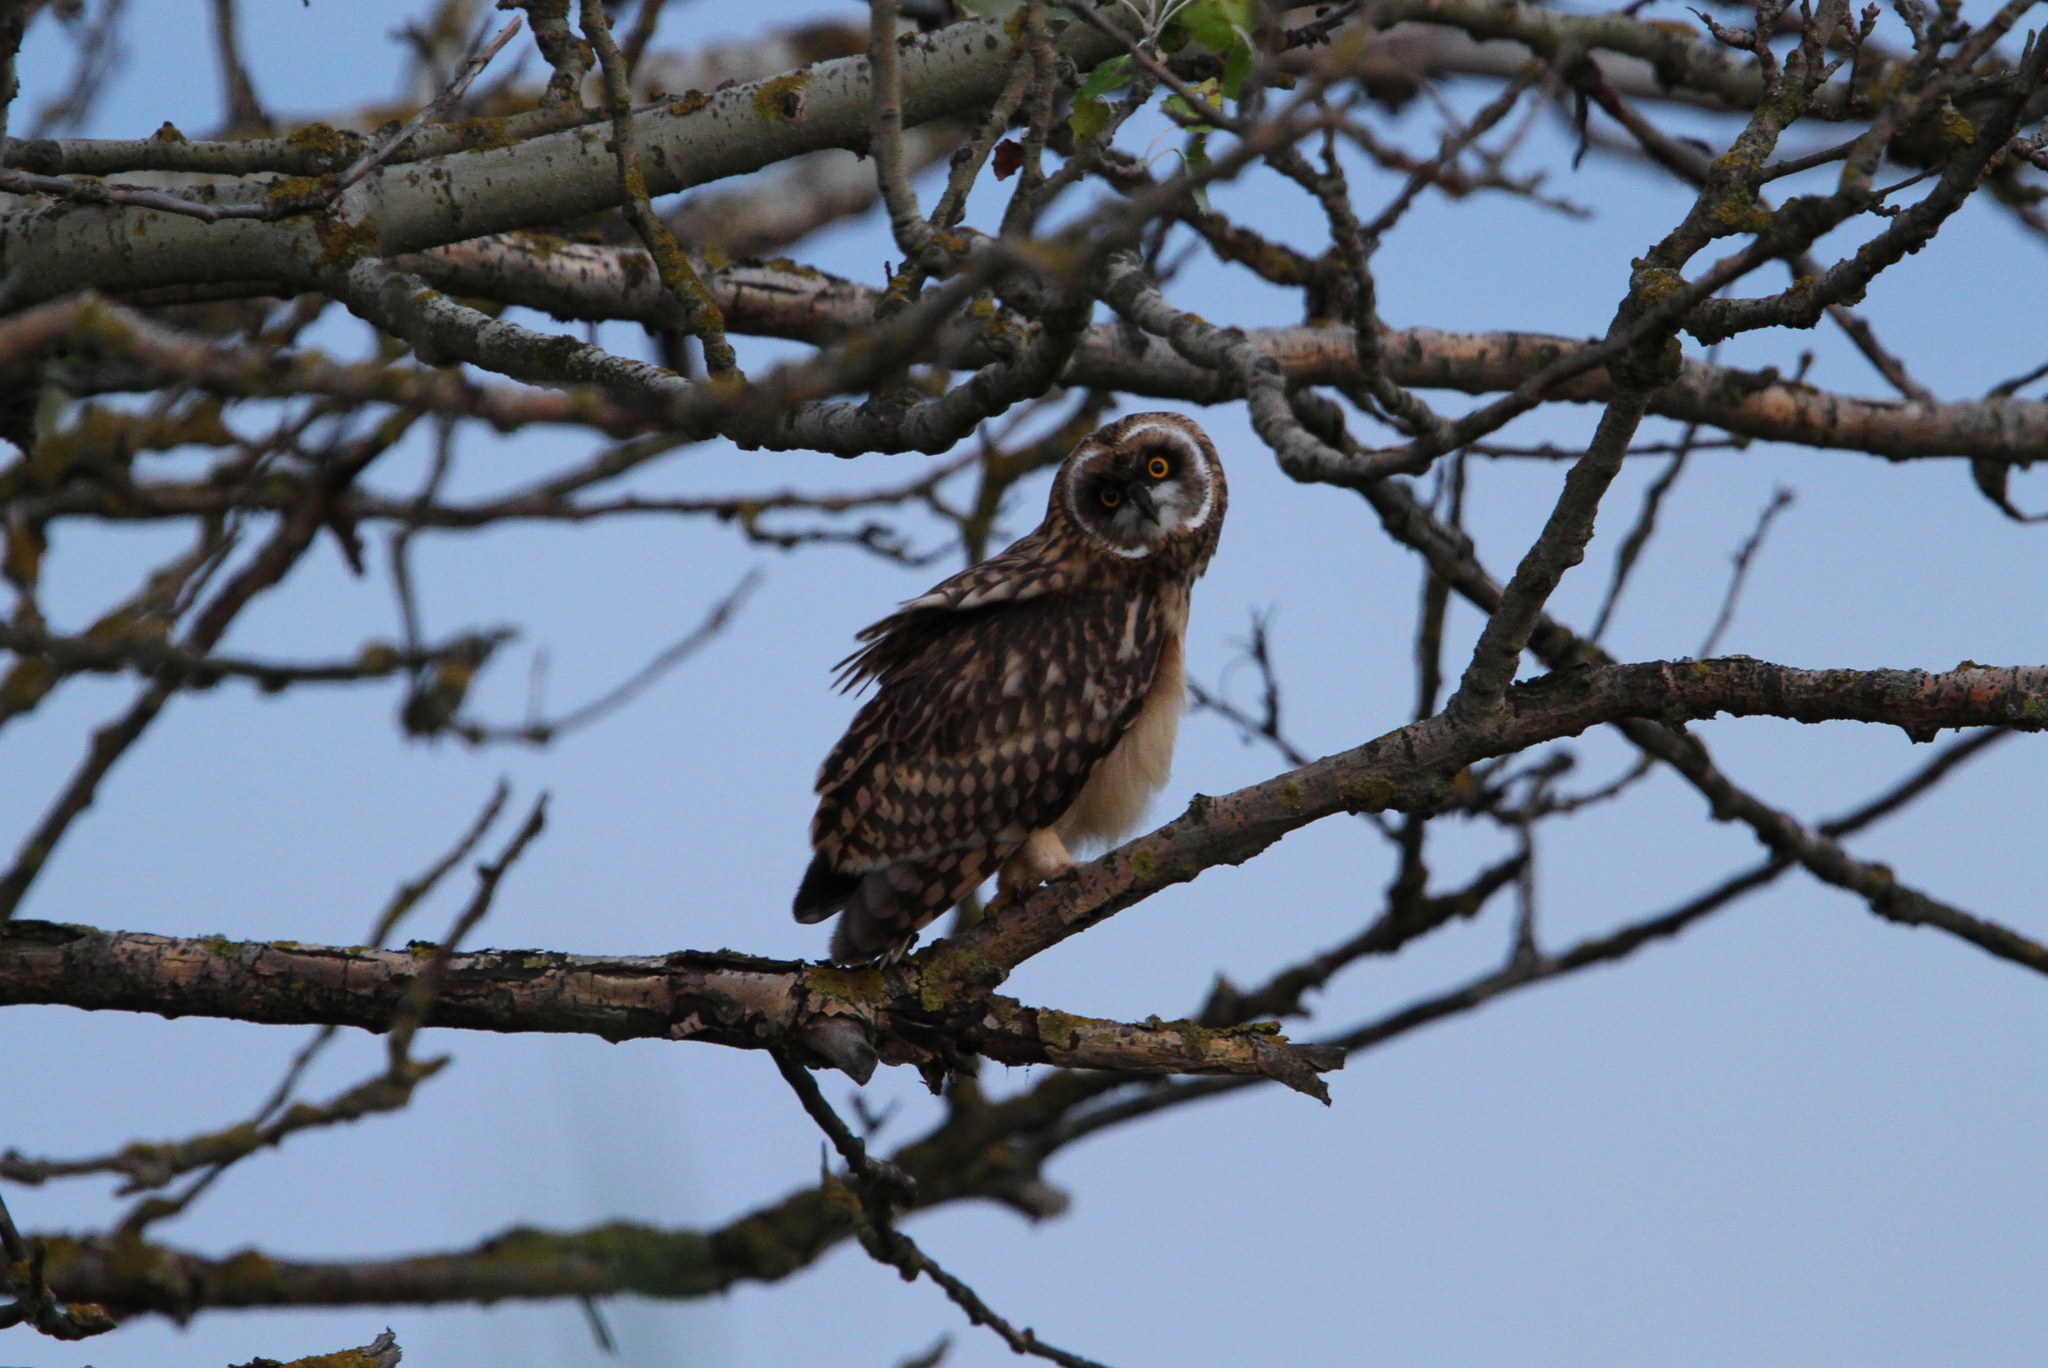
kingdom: Animalia
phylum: Chordata
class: Aves
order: Strigiformes
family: Strigidae
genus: Asio
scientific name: Asio flammeus
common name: Short-eared owl
